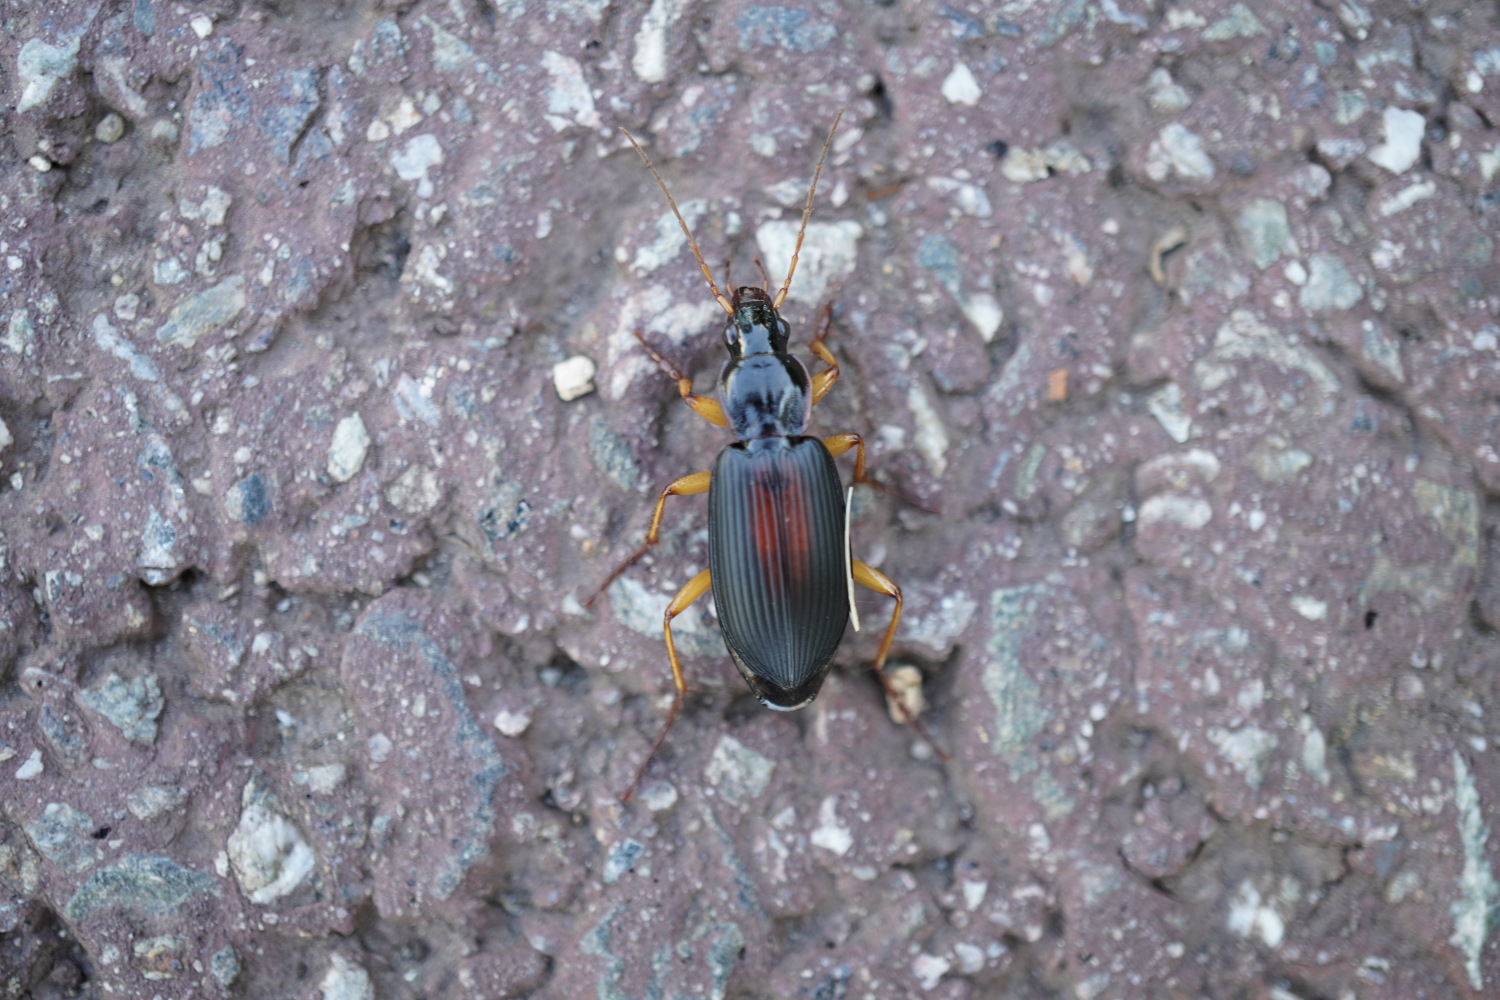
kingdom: Animalia
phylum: Arthropoda
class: Insecta
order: Coleoptera
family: Carabidae
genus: Dolichus
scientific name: Dolichus halensis
